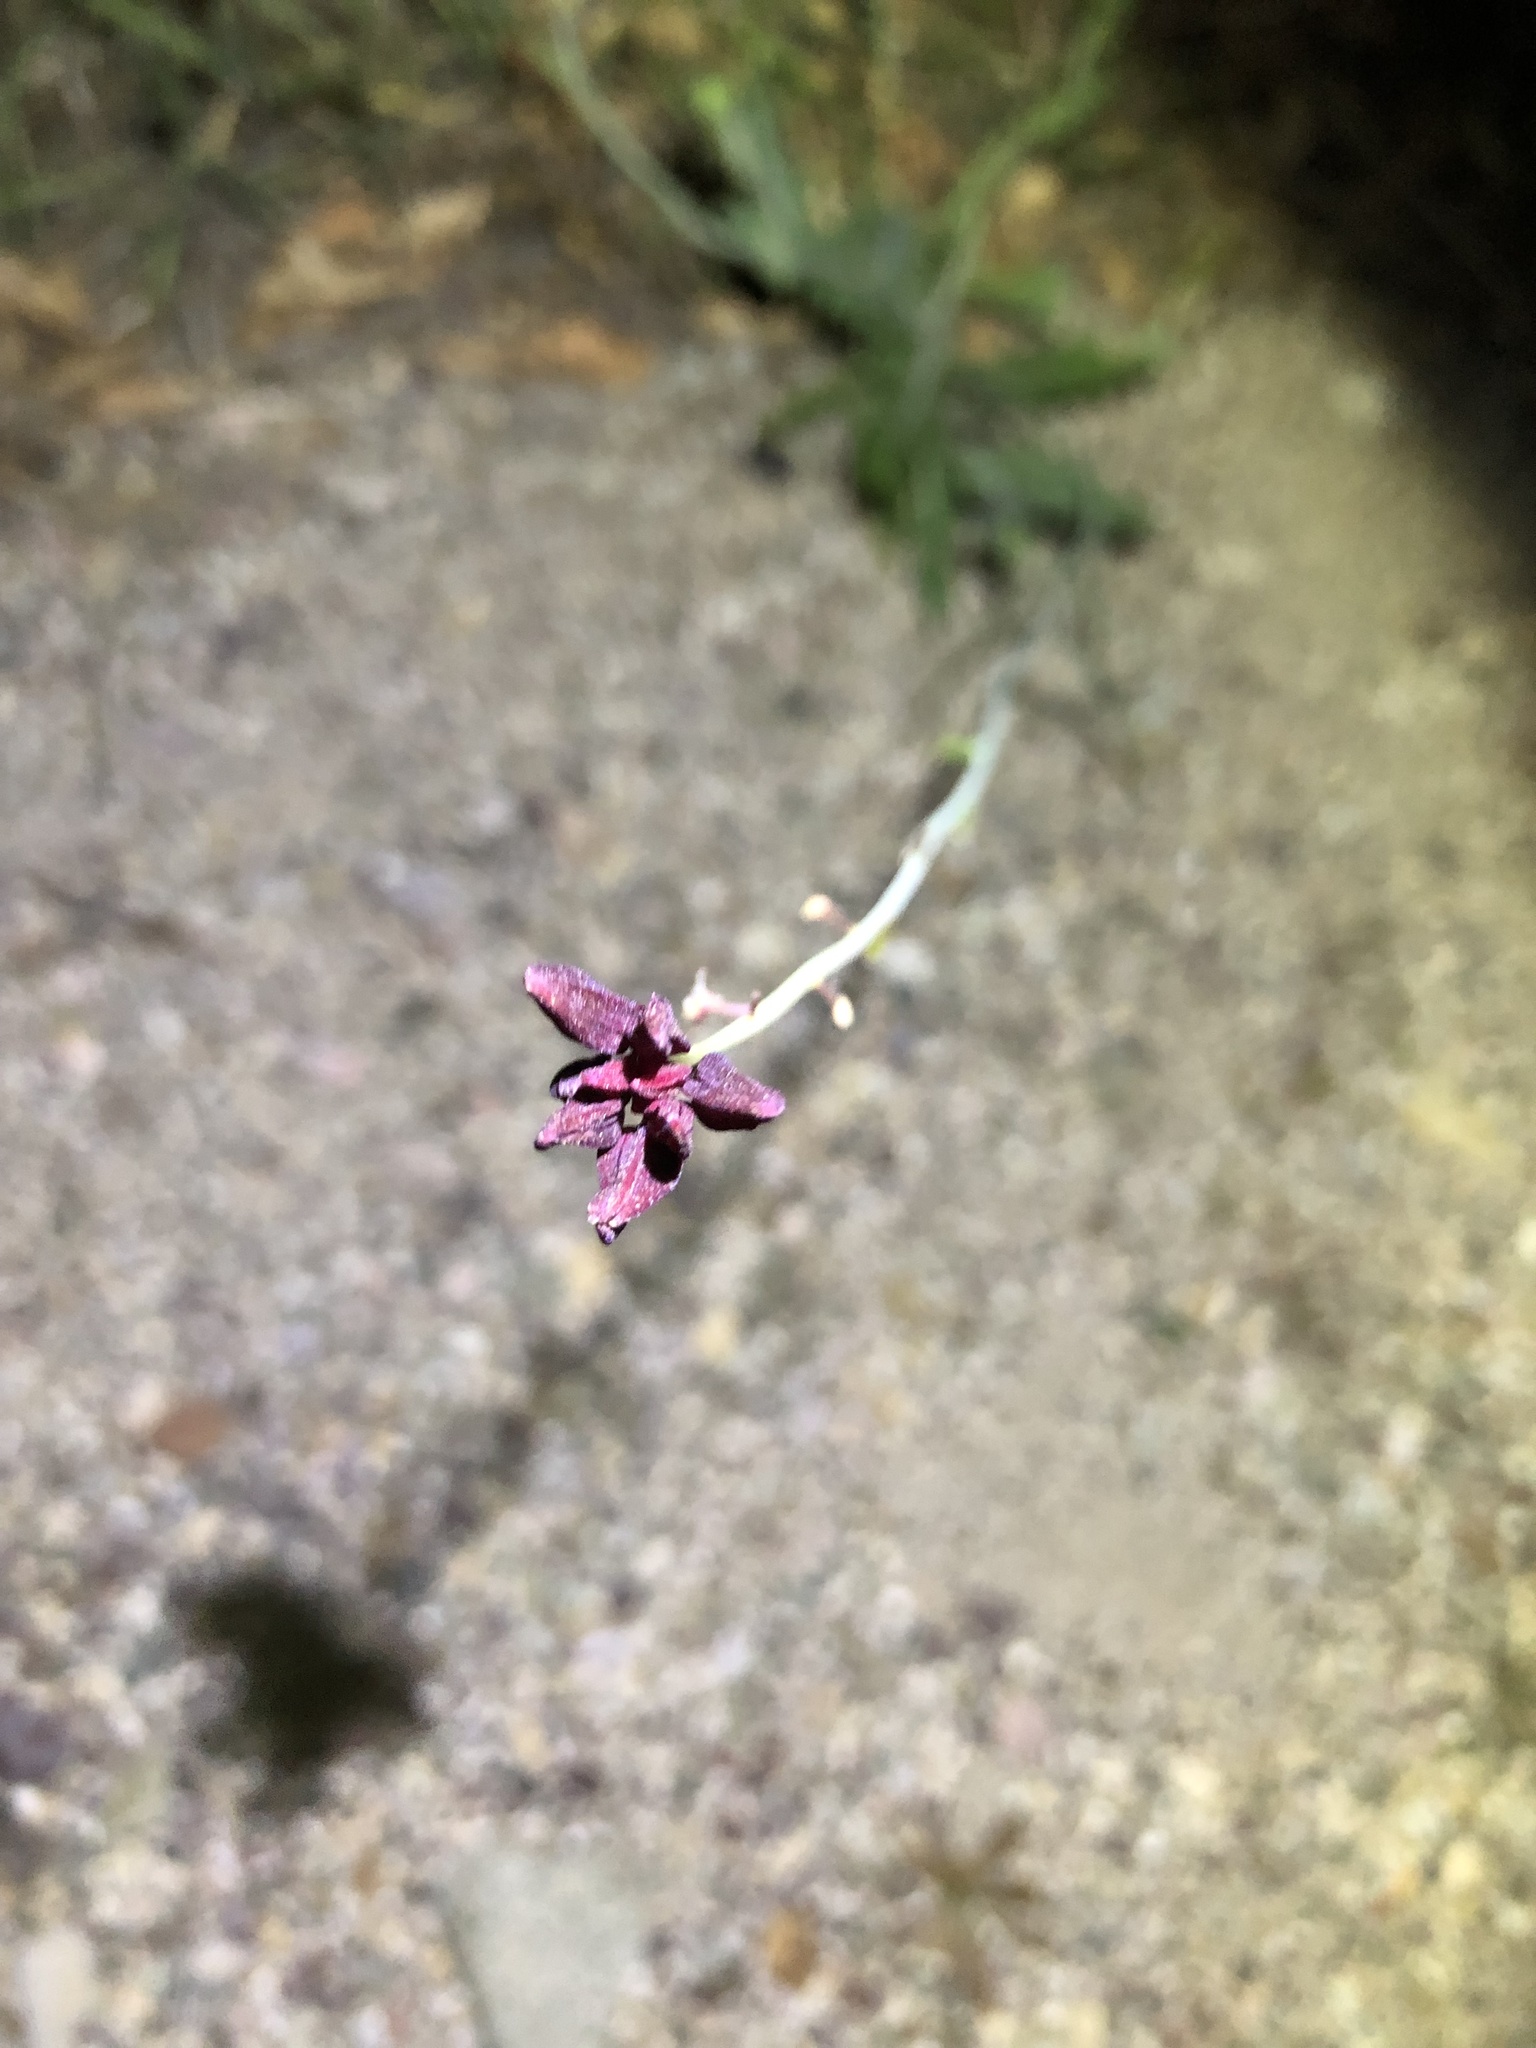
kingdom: Plantae
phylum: Tracheophyta
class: Magnoliopsida
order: Brassicales
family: Brassicaceae
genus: Streptanthus
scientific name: Streptanthus coulteri
